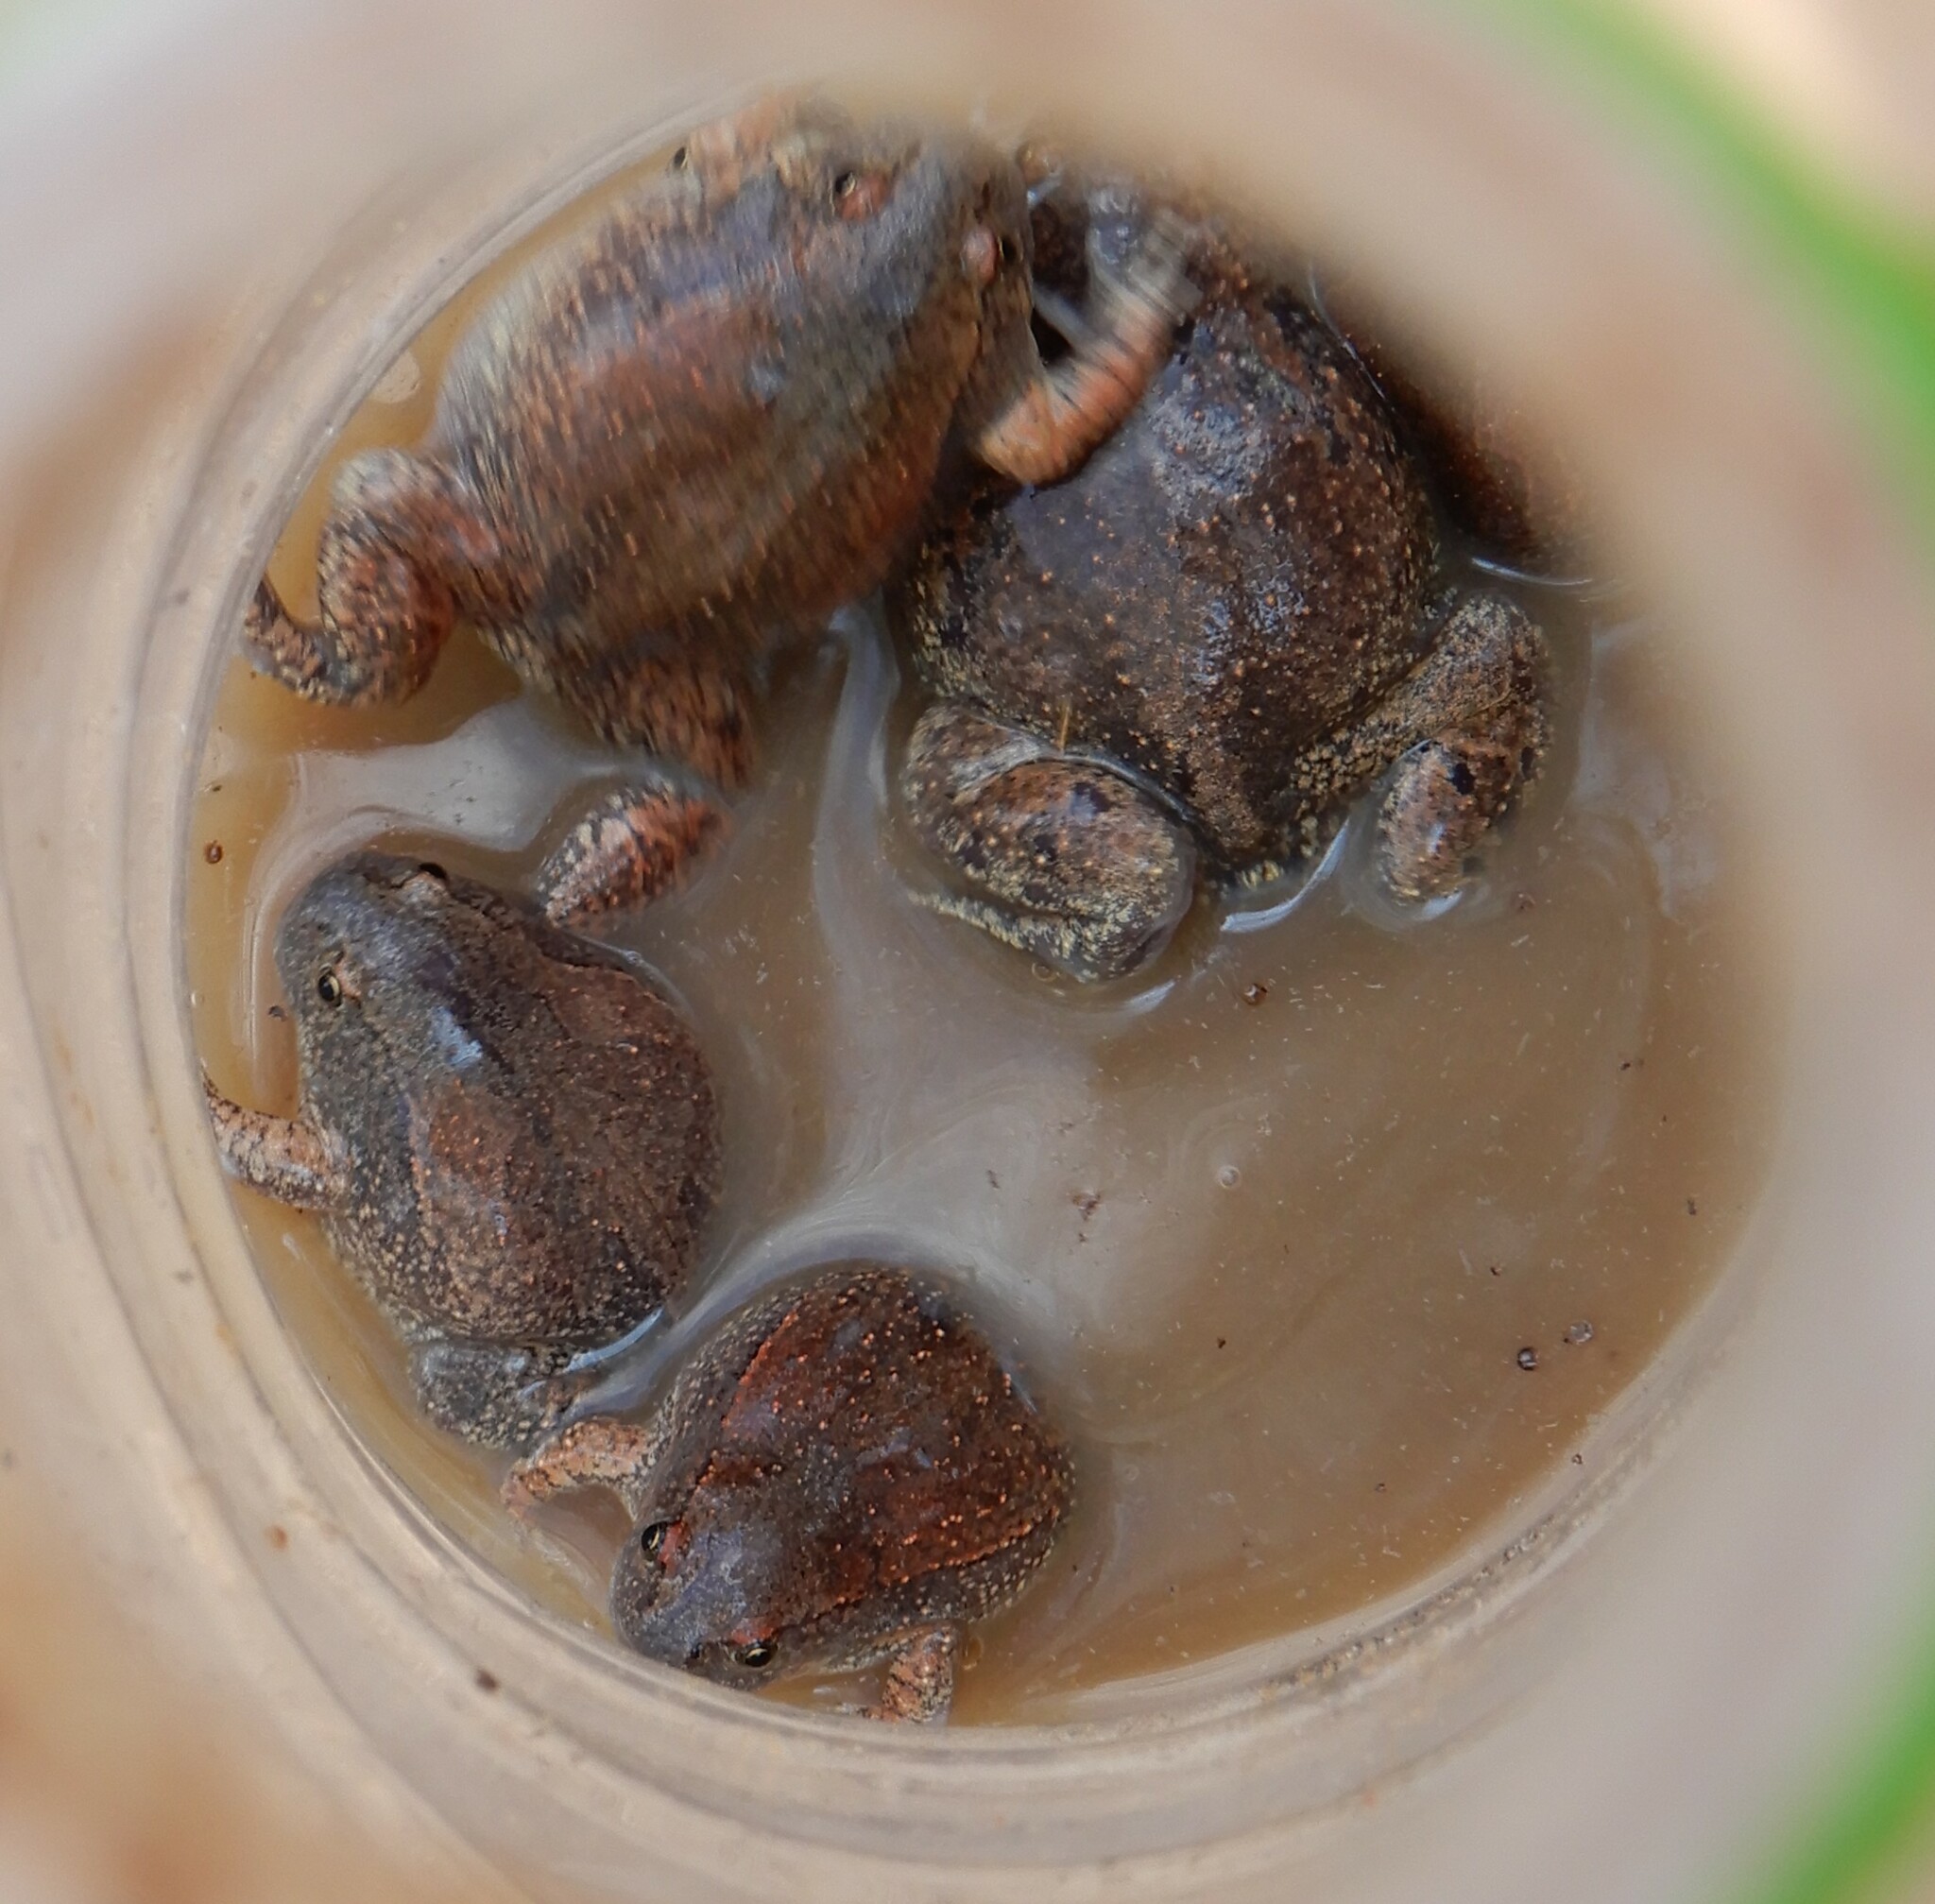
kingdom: Animalia
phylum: Chordata
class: Amphibia
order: Anura
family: Microhylidae
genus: Glyphoglossus
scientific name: Glyphoglossus molossus
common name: Balloon frog
